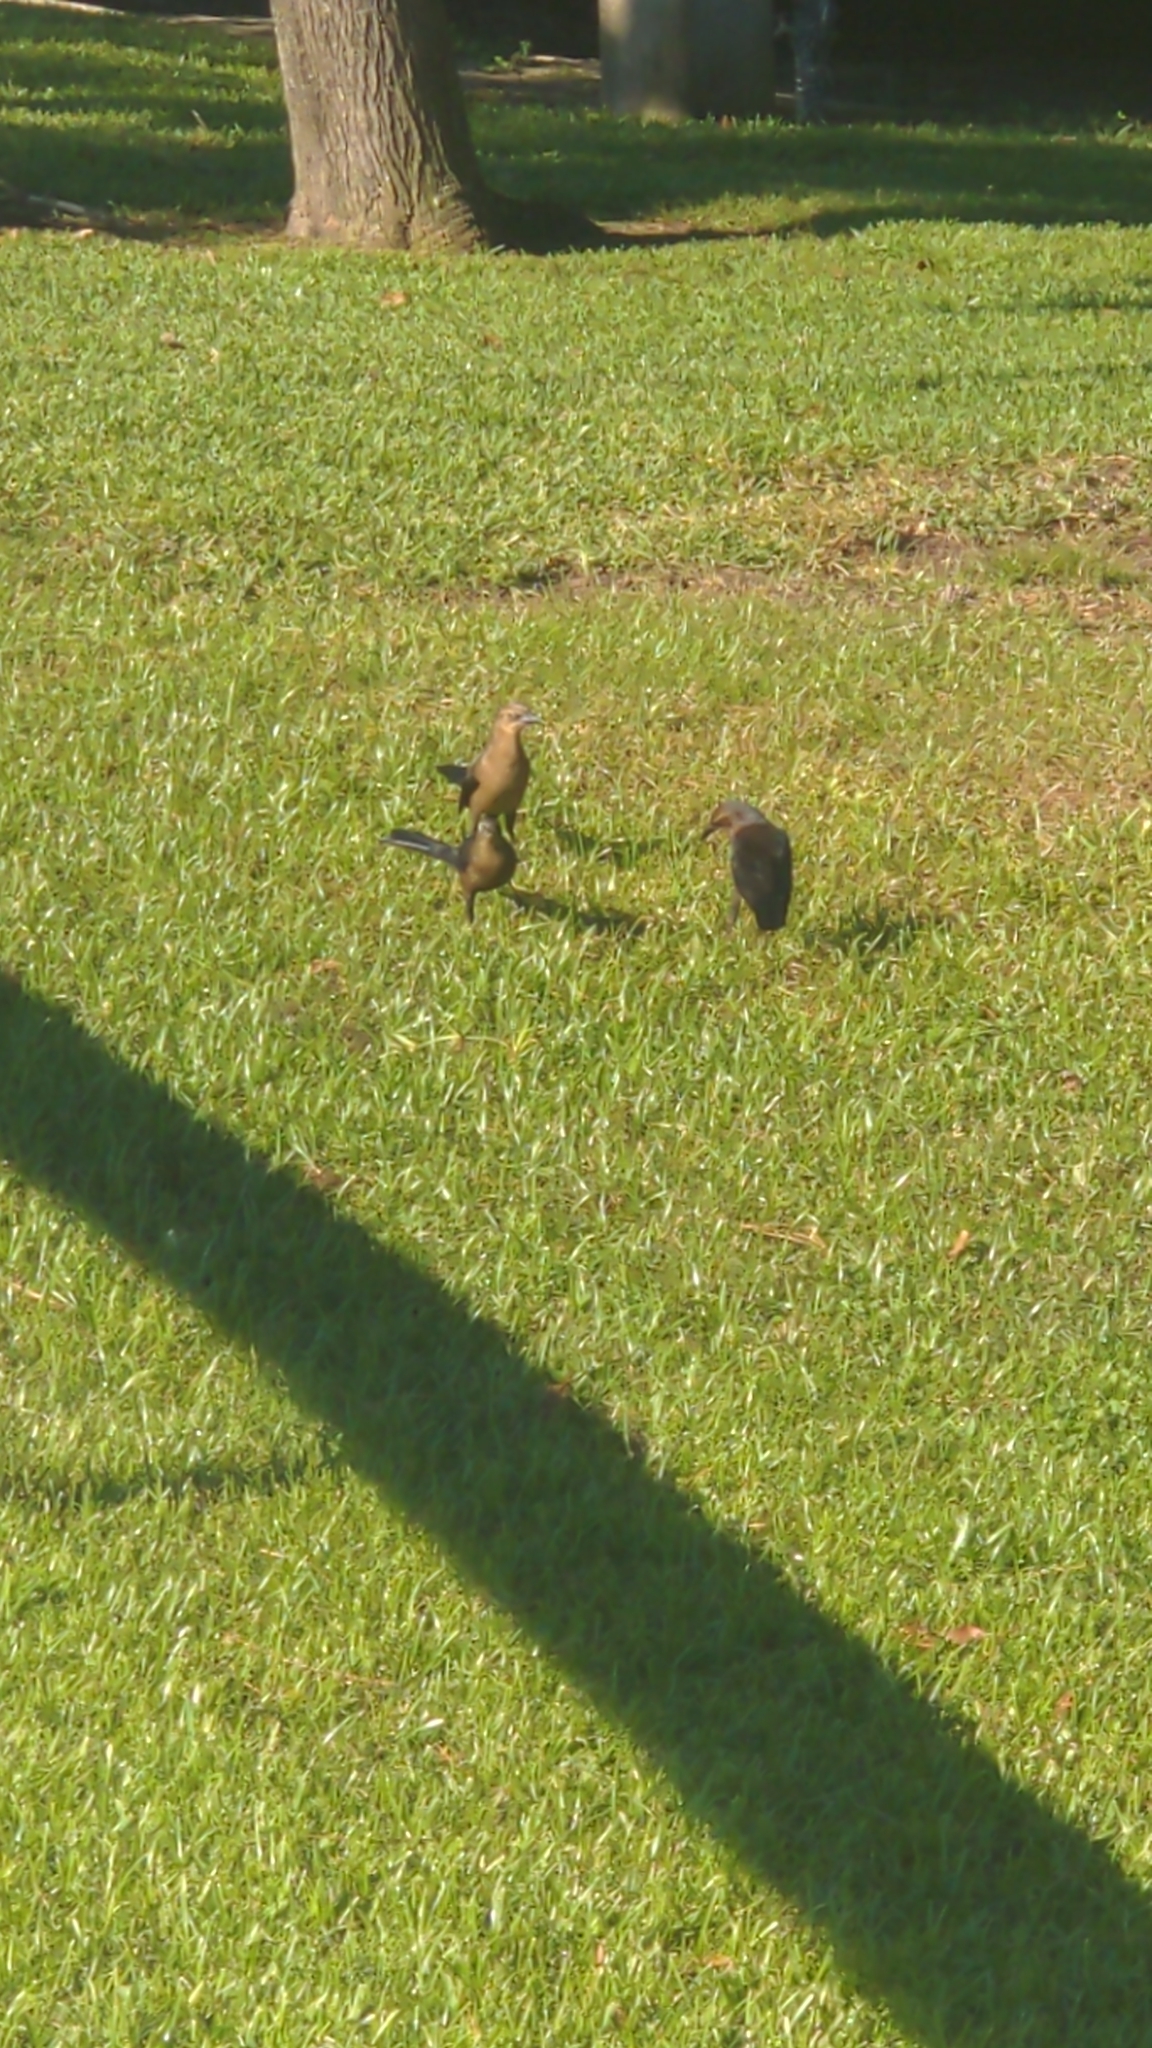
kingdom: Animalia
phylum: Chordata
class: Aves
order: Passeriformes
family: Icteridae
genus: Quiscalus
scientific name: Quiscalus mexicanus
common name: Great-tailed grackle
